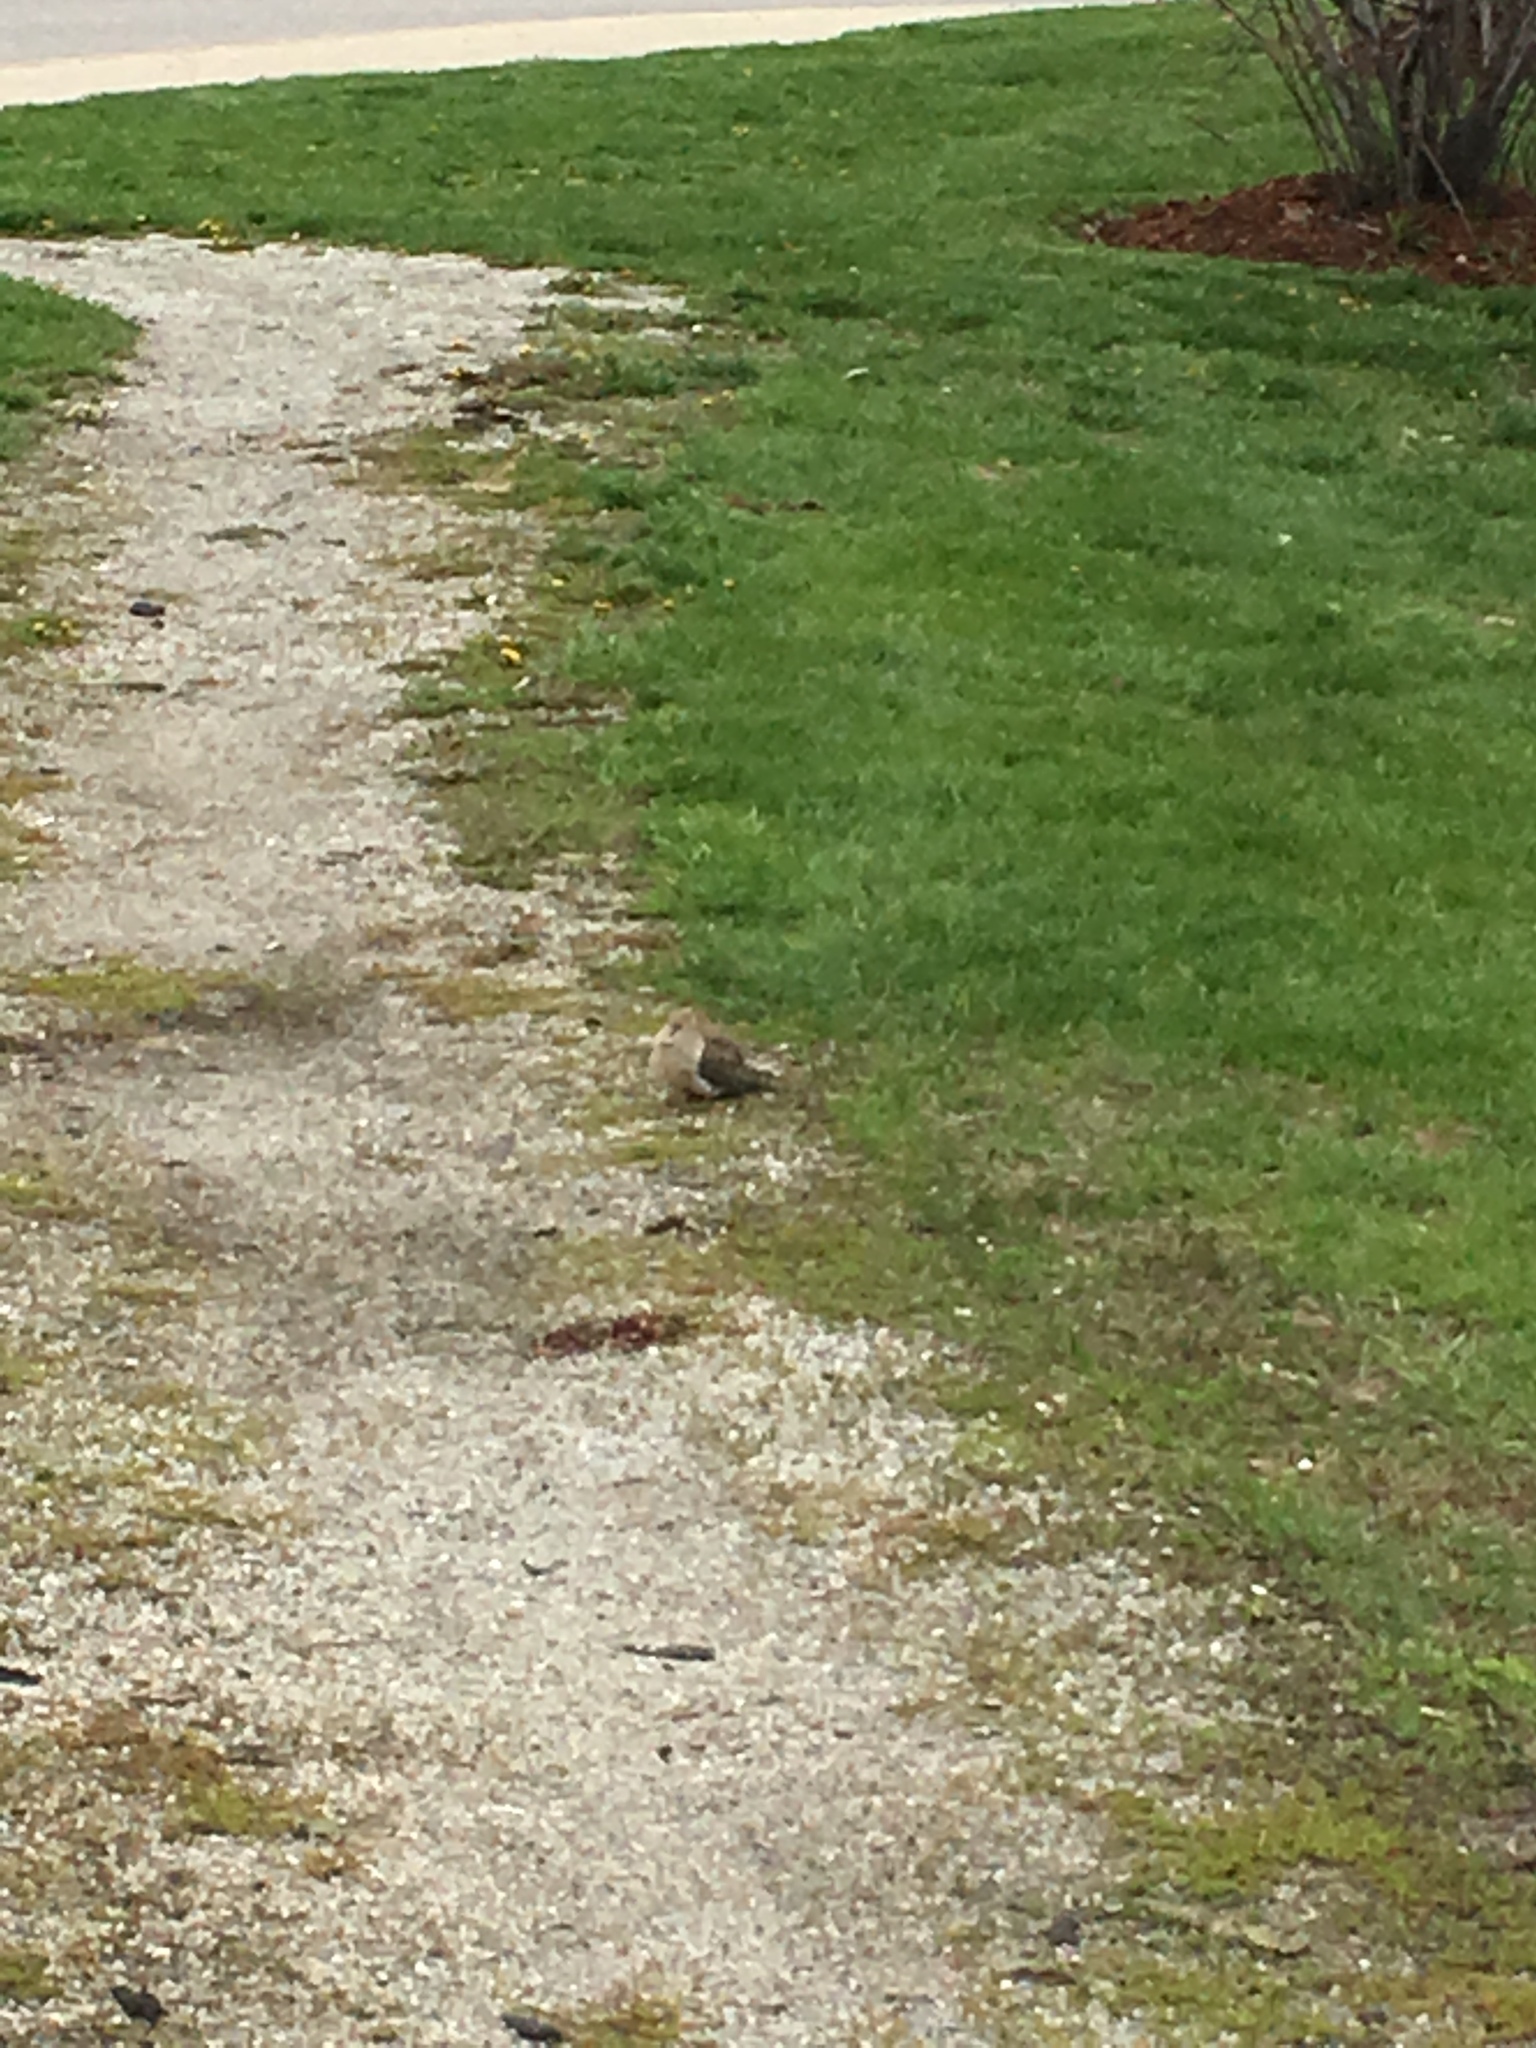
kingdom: Animalia
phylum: Chordata
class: Aves
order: Columbiformes
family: Columbidae
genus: Zenaida
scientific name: Zenaida macroura
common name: Mourning dove
